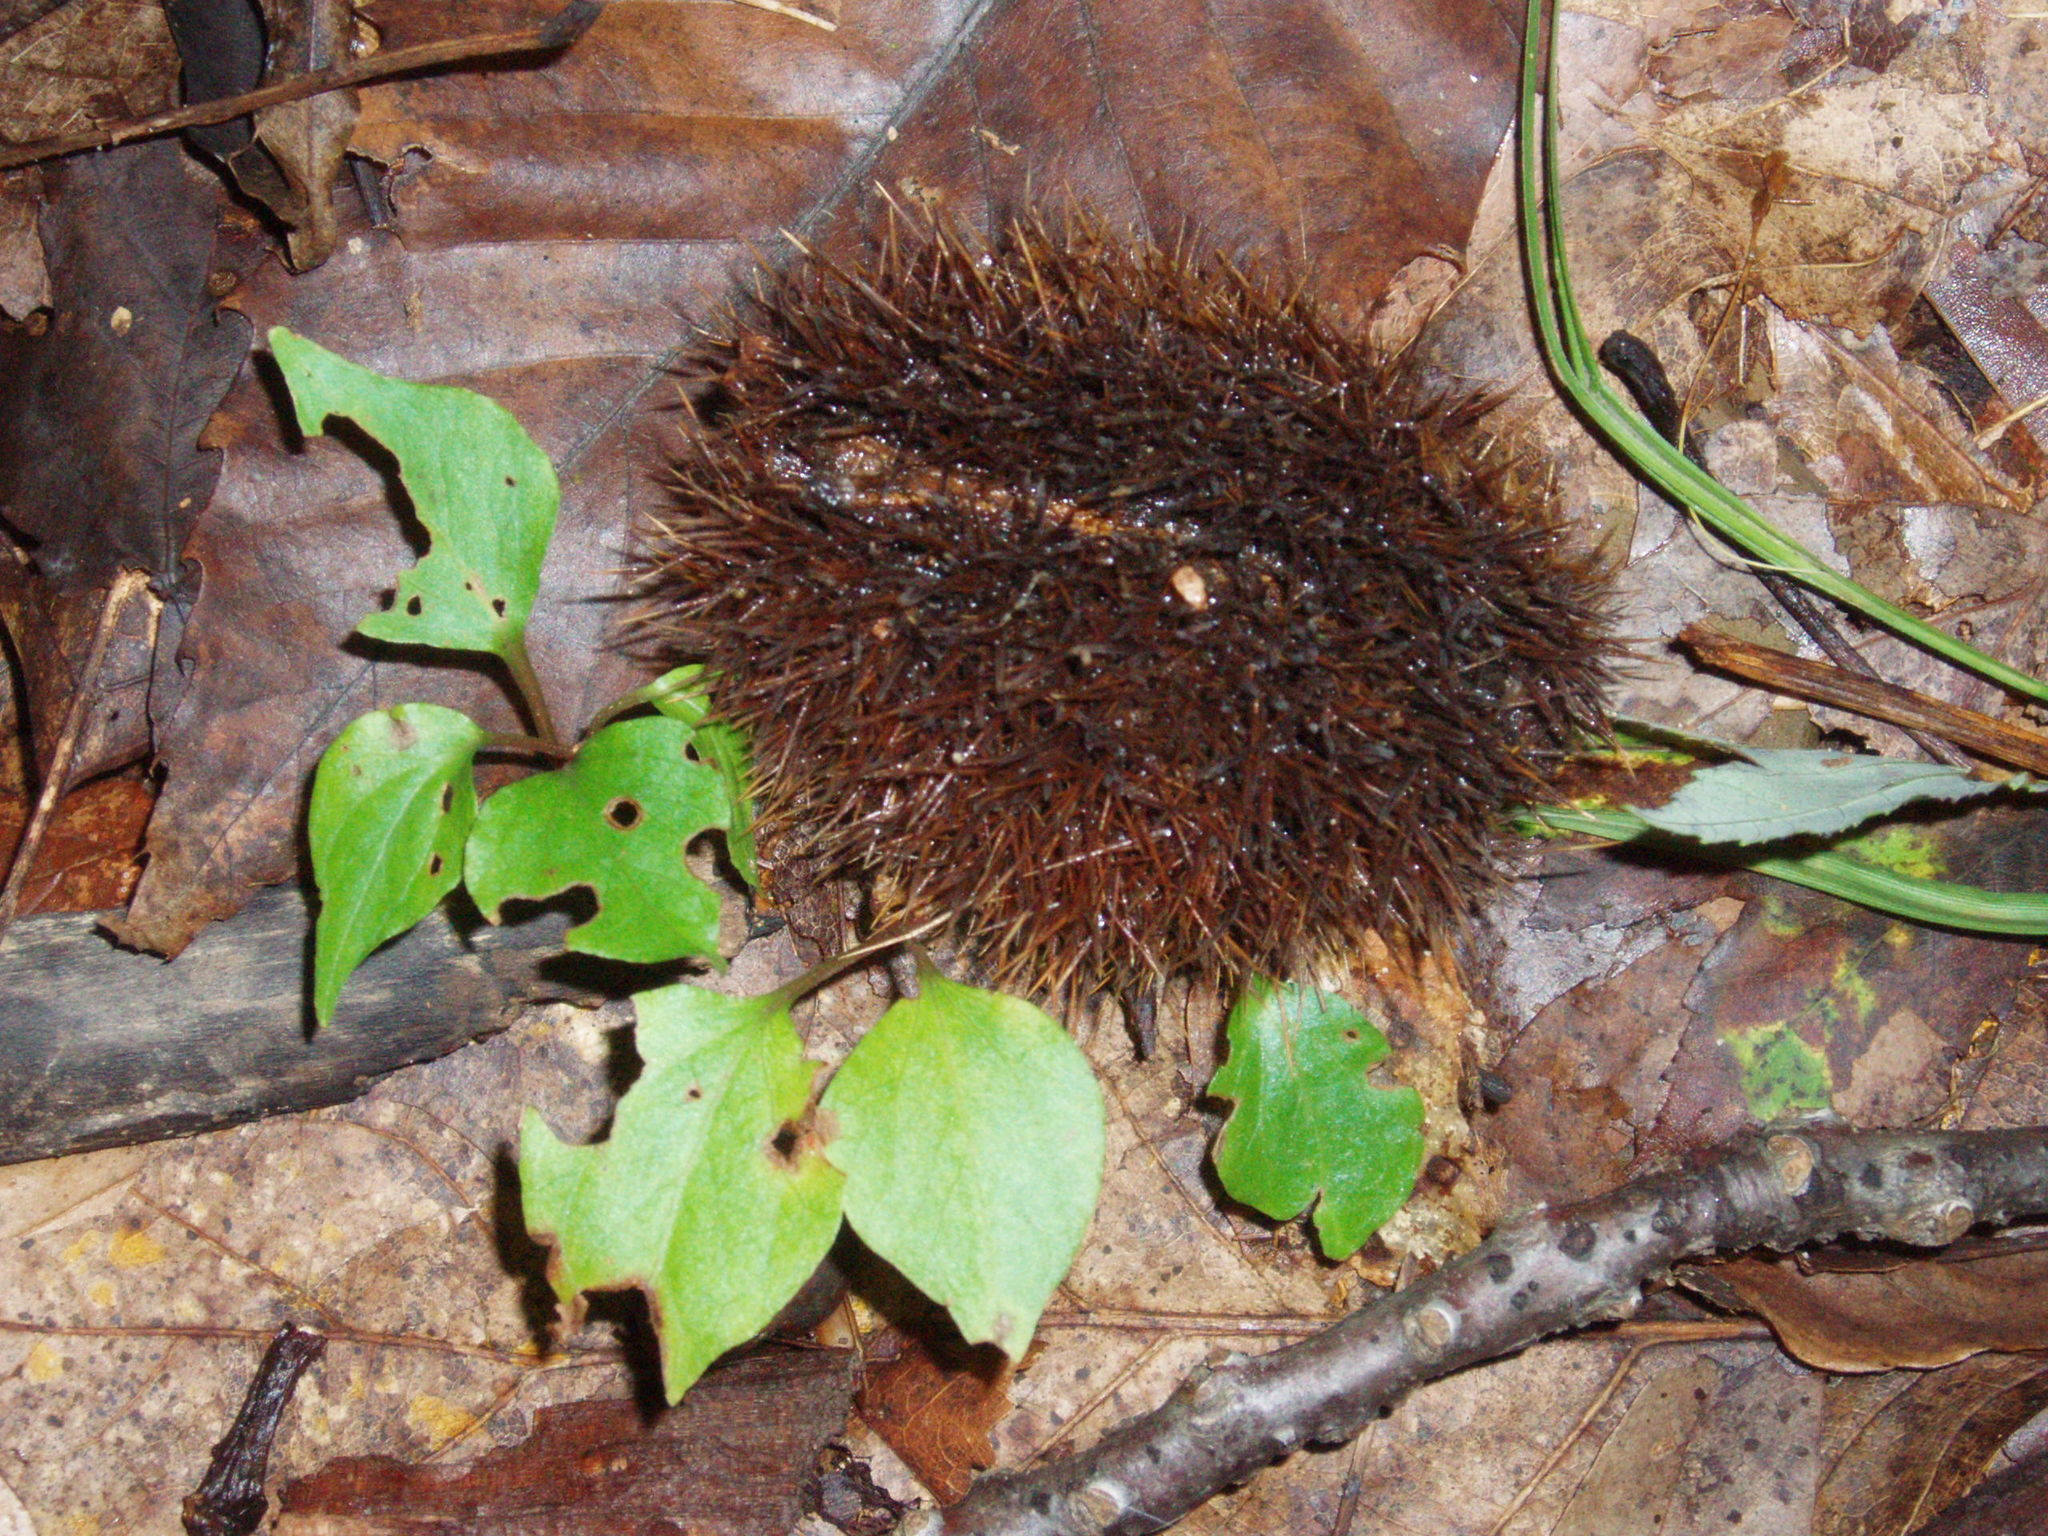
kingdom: Plantae
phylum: Tracheophyta
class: Magnoliopsida
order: Fagales
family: Fagaceae
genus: Castanea
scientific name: Castanea dentata
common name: American chestnut
